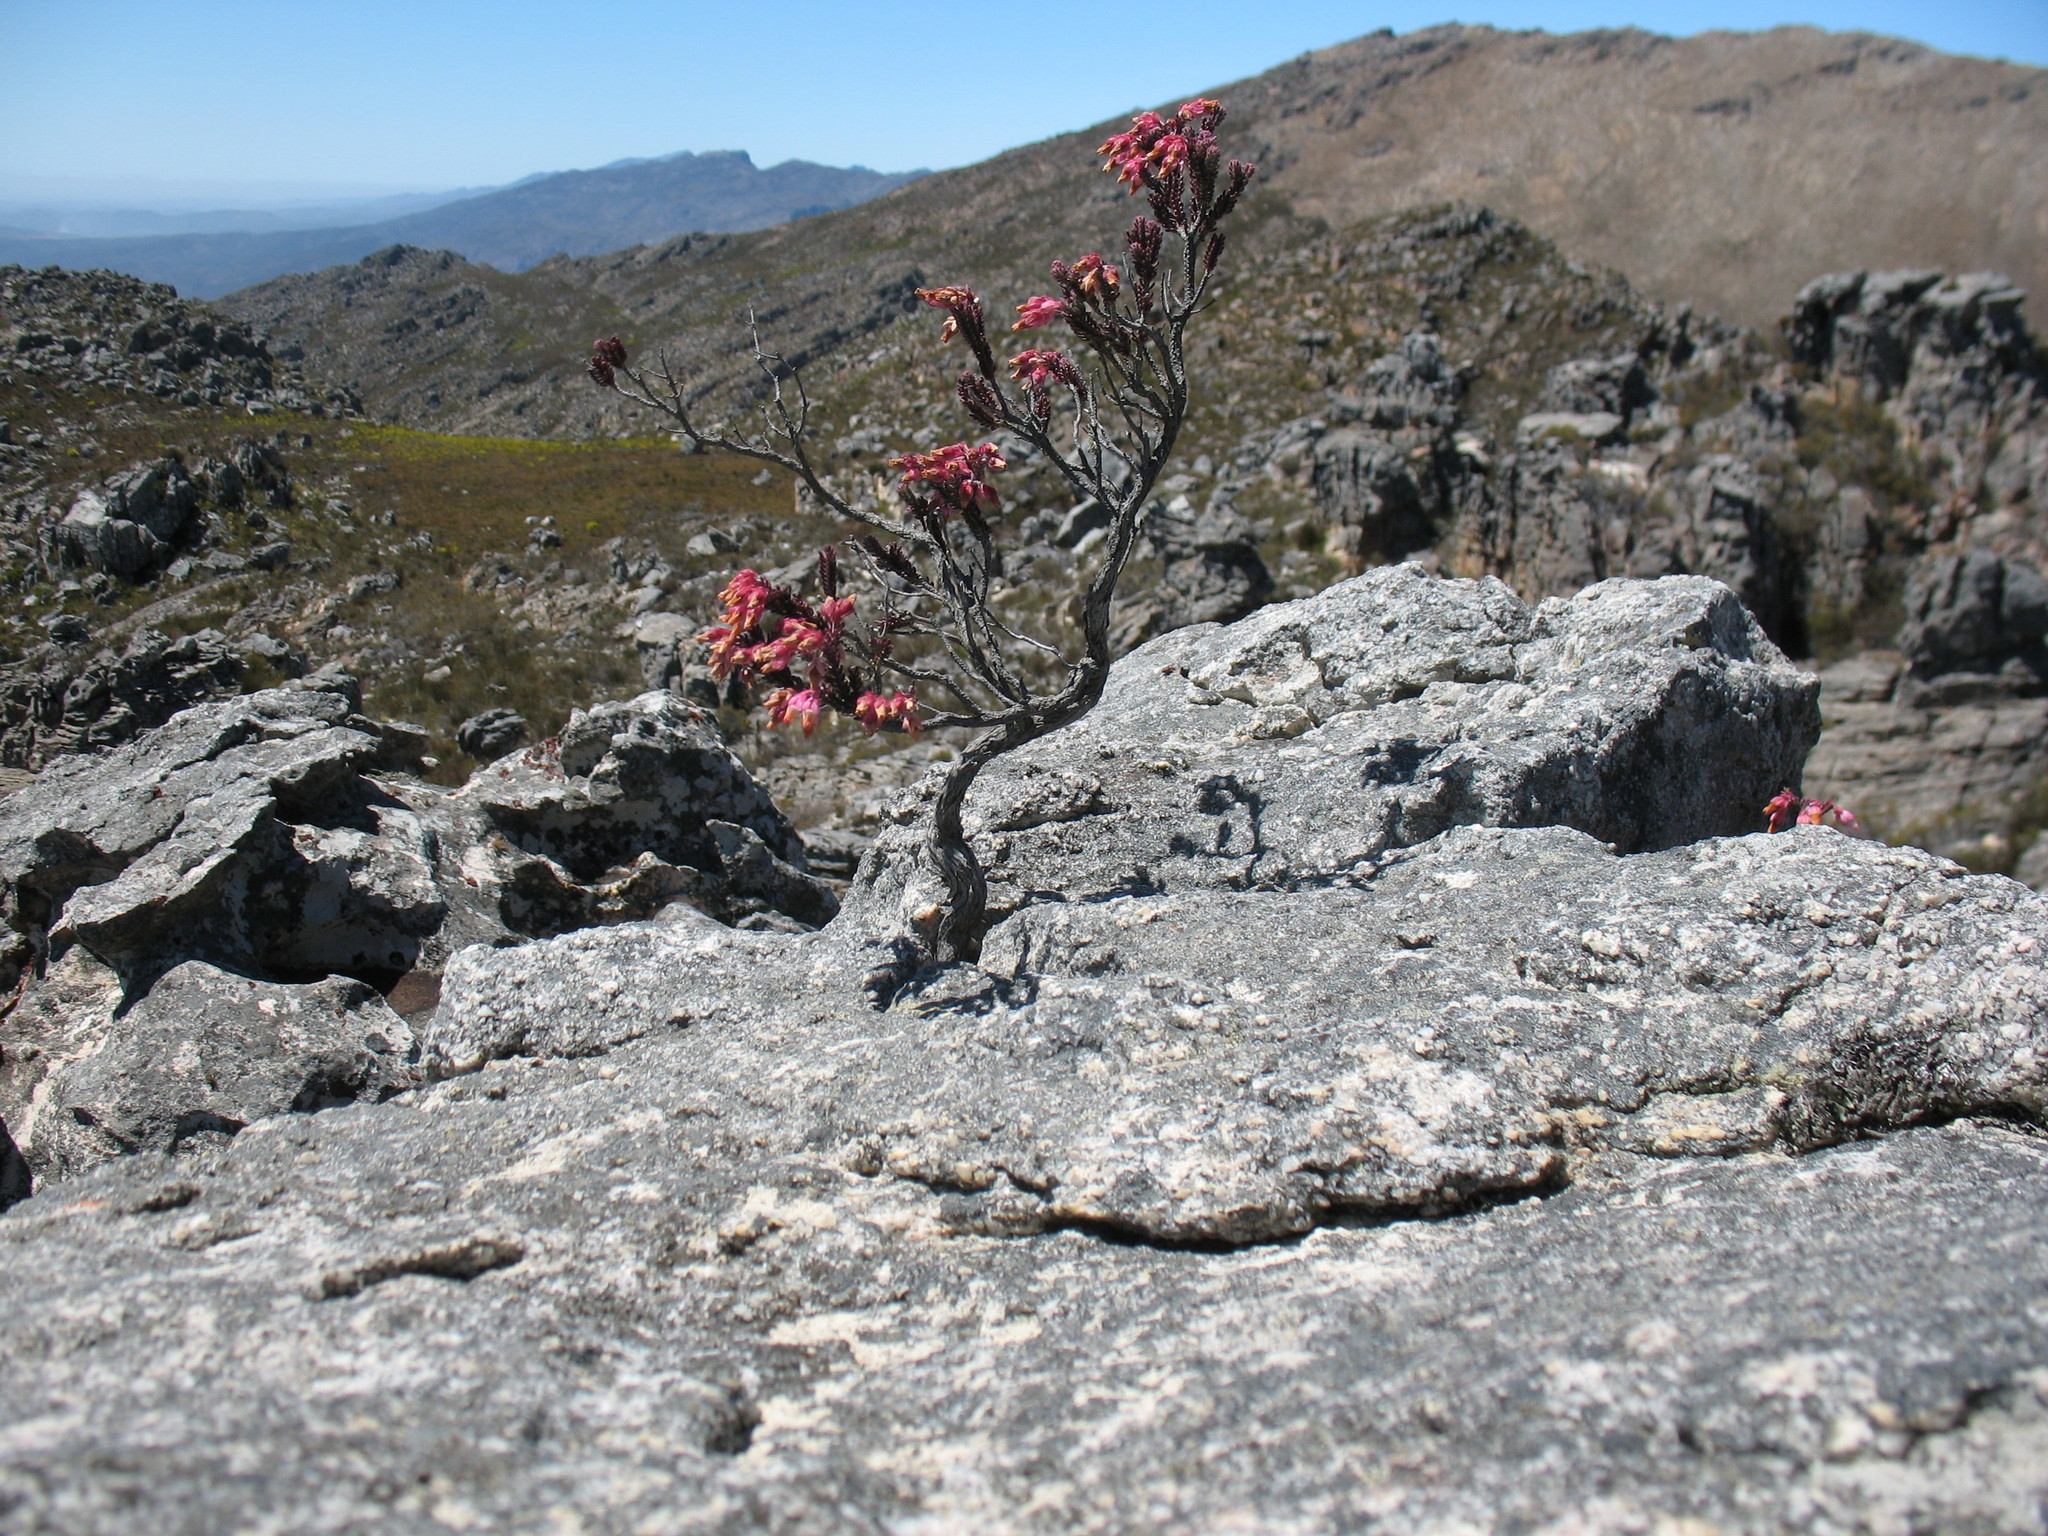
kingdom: Plantae
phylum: Tracheophyta
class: Magnoliopsida
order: Ericales
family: Ericaceae
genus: Erica
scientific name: Erica goatcheriana
